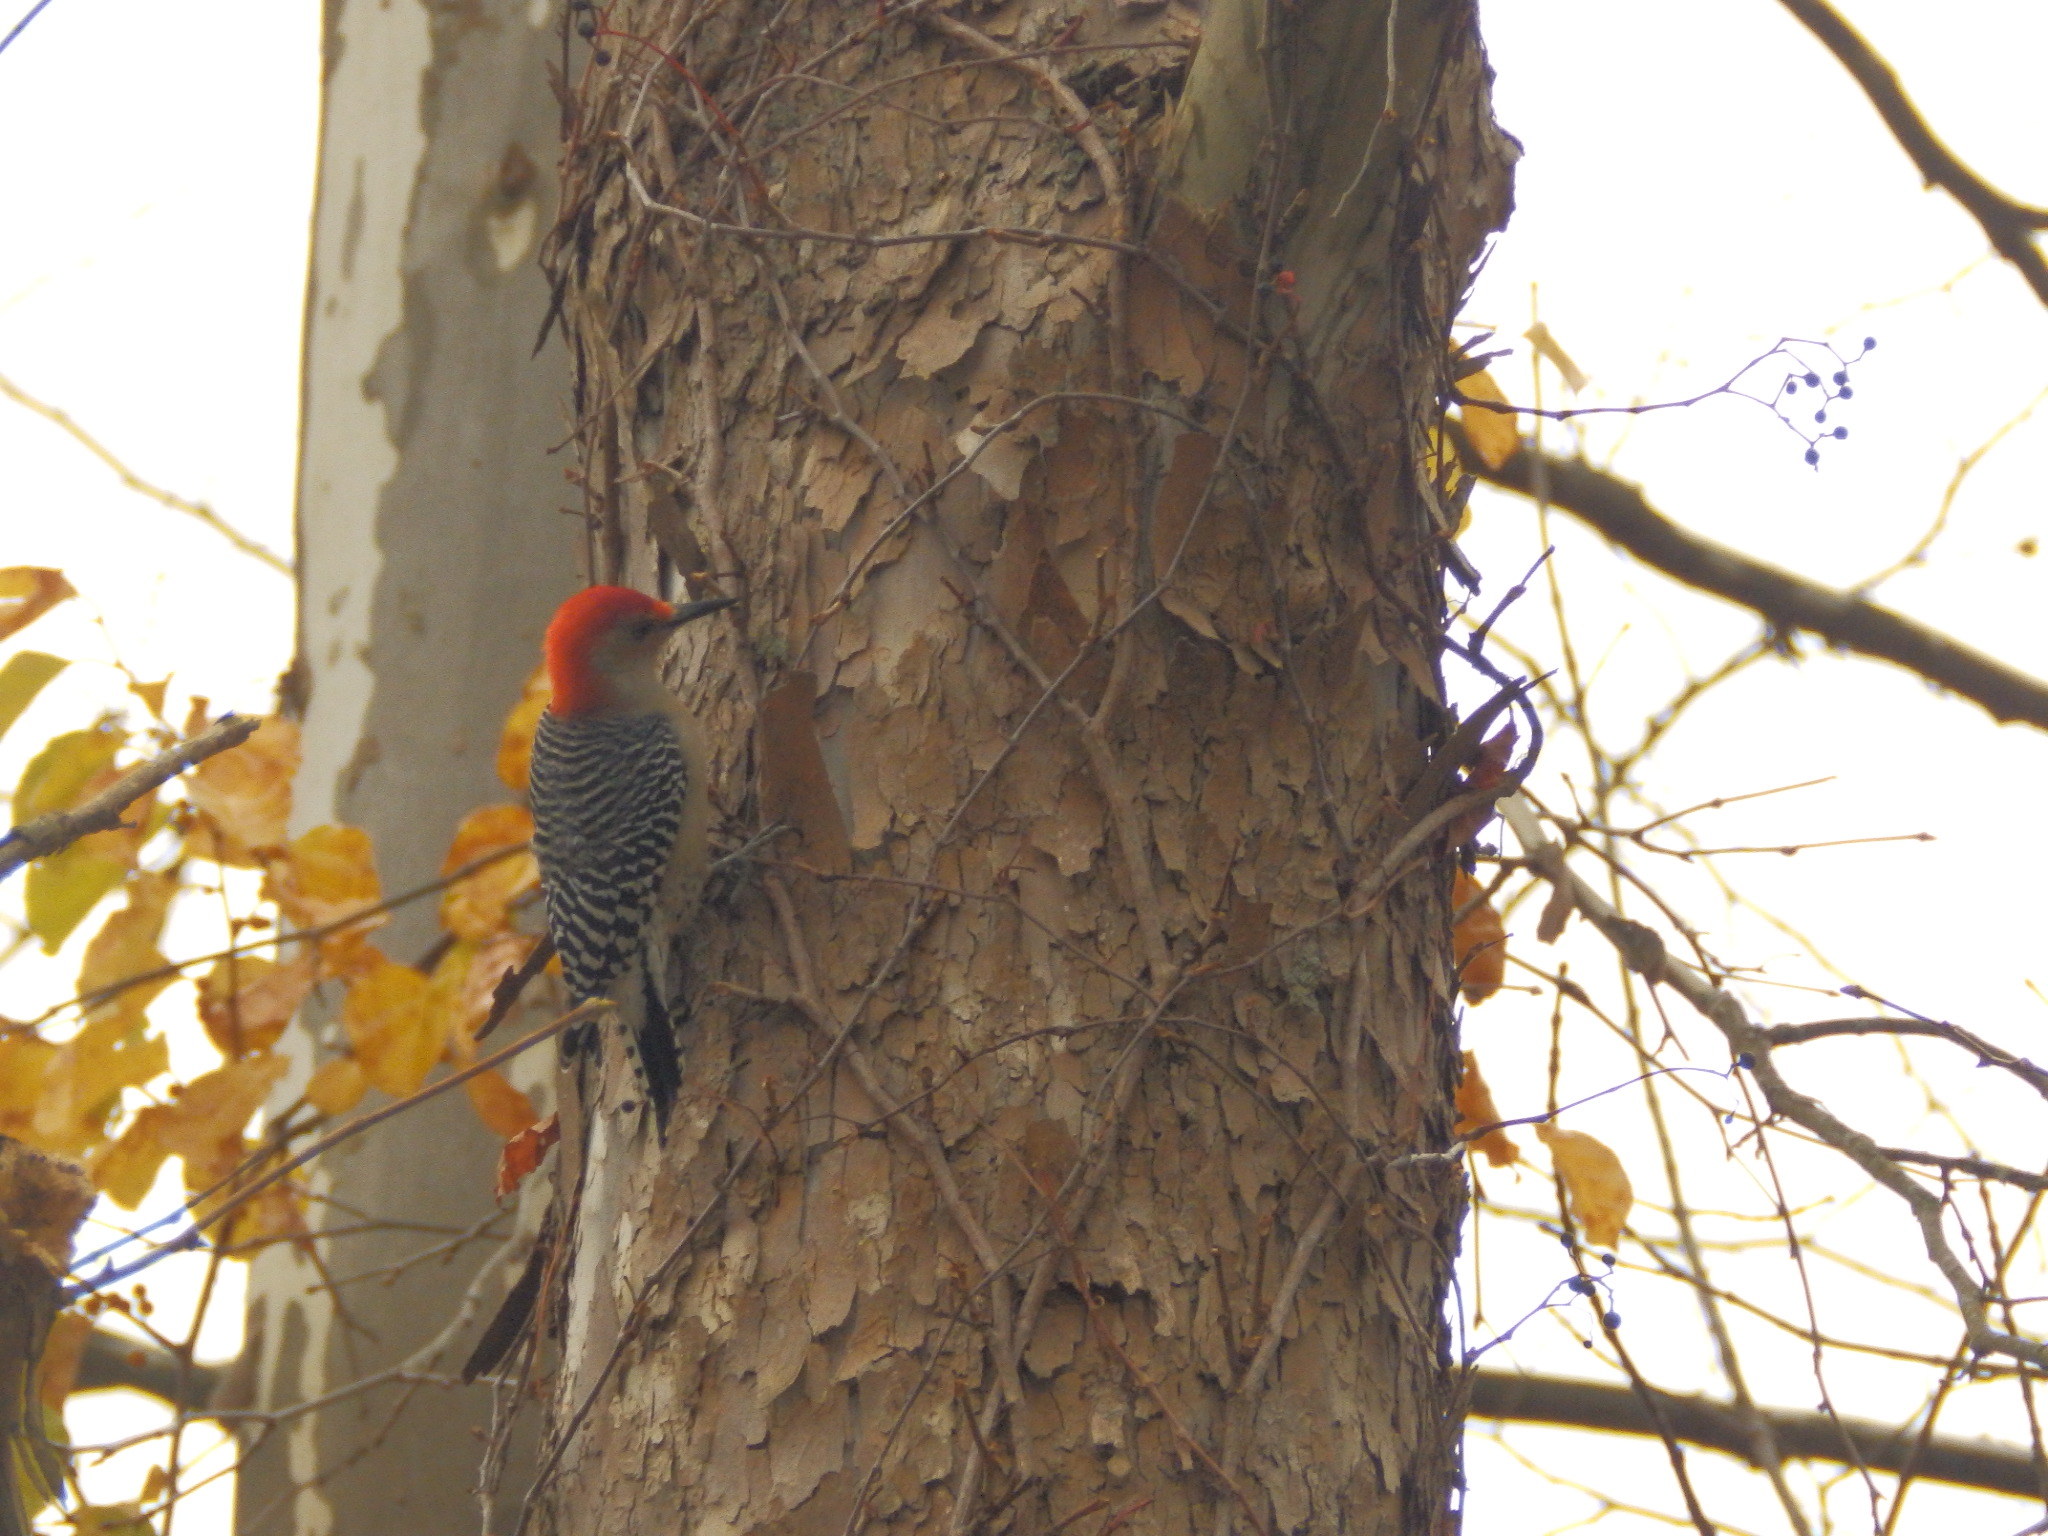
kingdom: Animalia
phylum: Chordata
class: Aves
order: Piciformes
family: Picidae
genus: Melanerpes
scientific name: Melanerpes carolinus
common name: Red-bellied woodpecker
